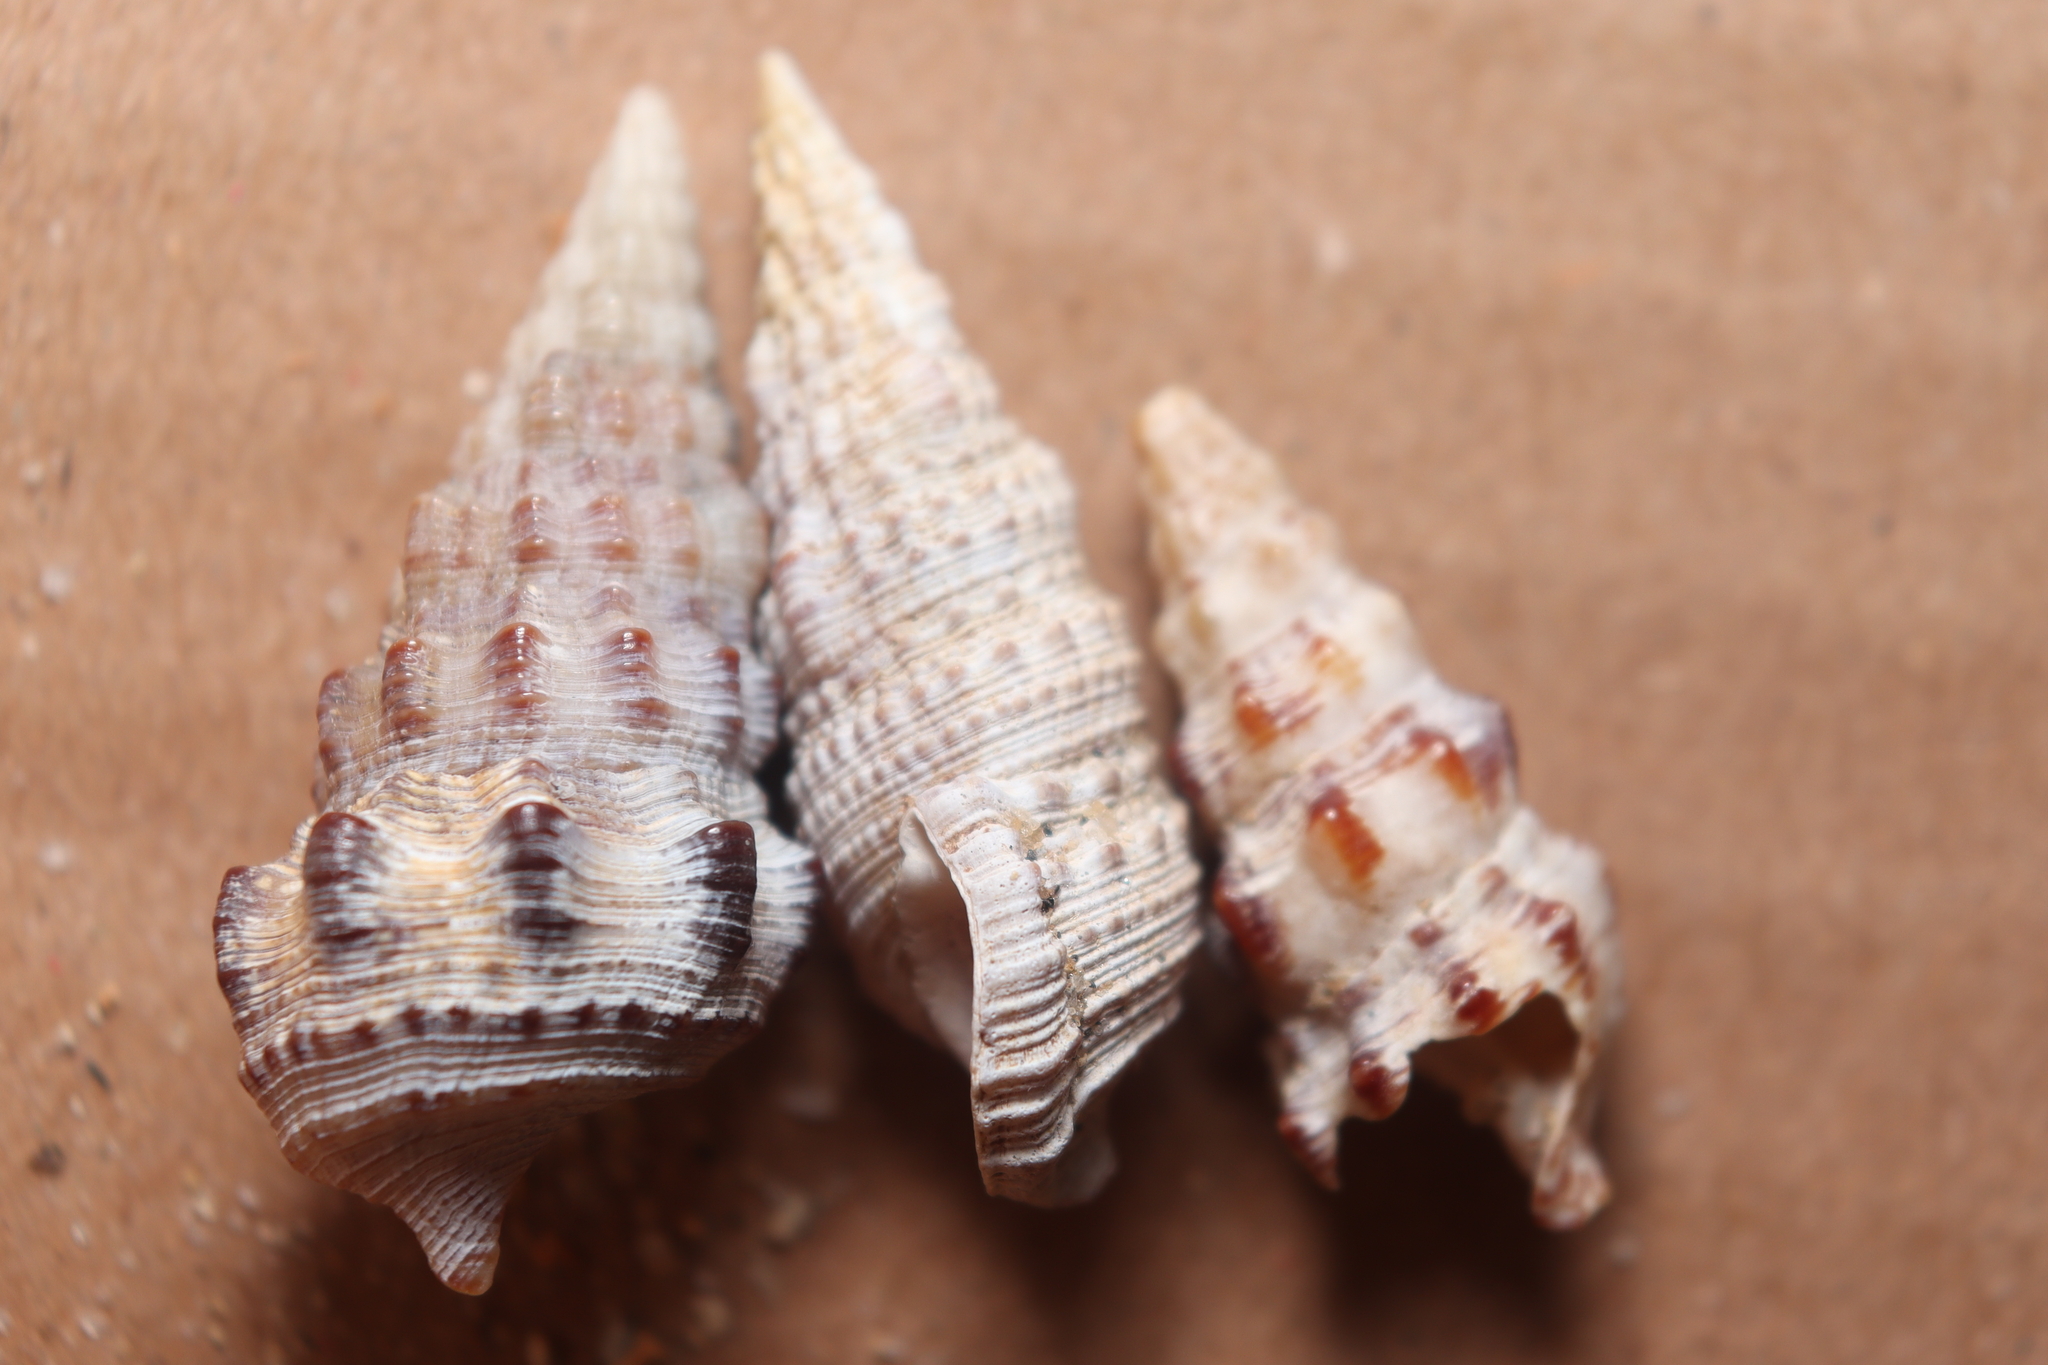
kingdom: Animalia
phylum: Mollusca
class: Gastropoda
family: Cerithiidae
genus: Cerithium
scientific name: Cerithium atratum
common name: Dark cerith
